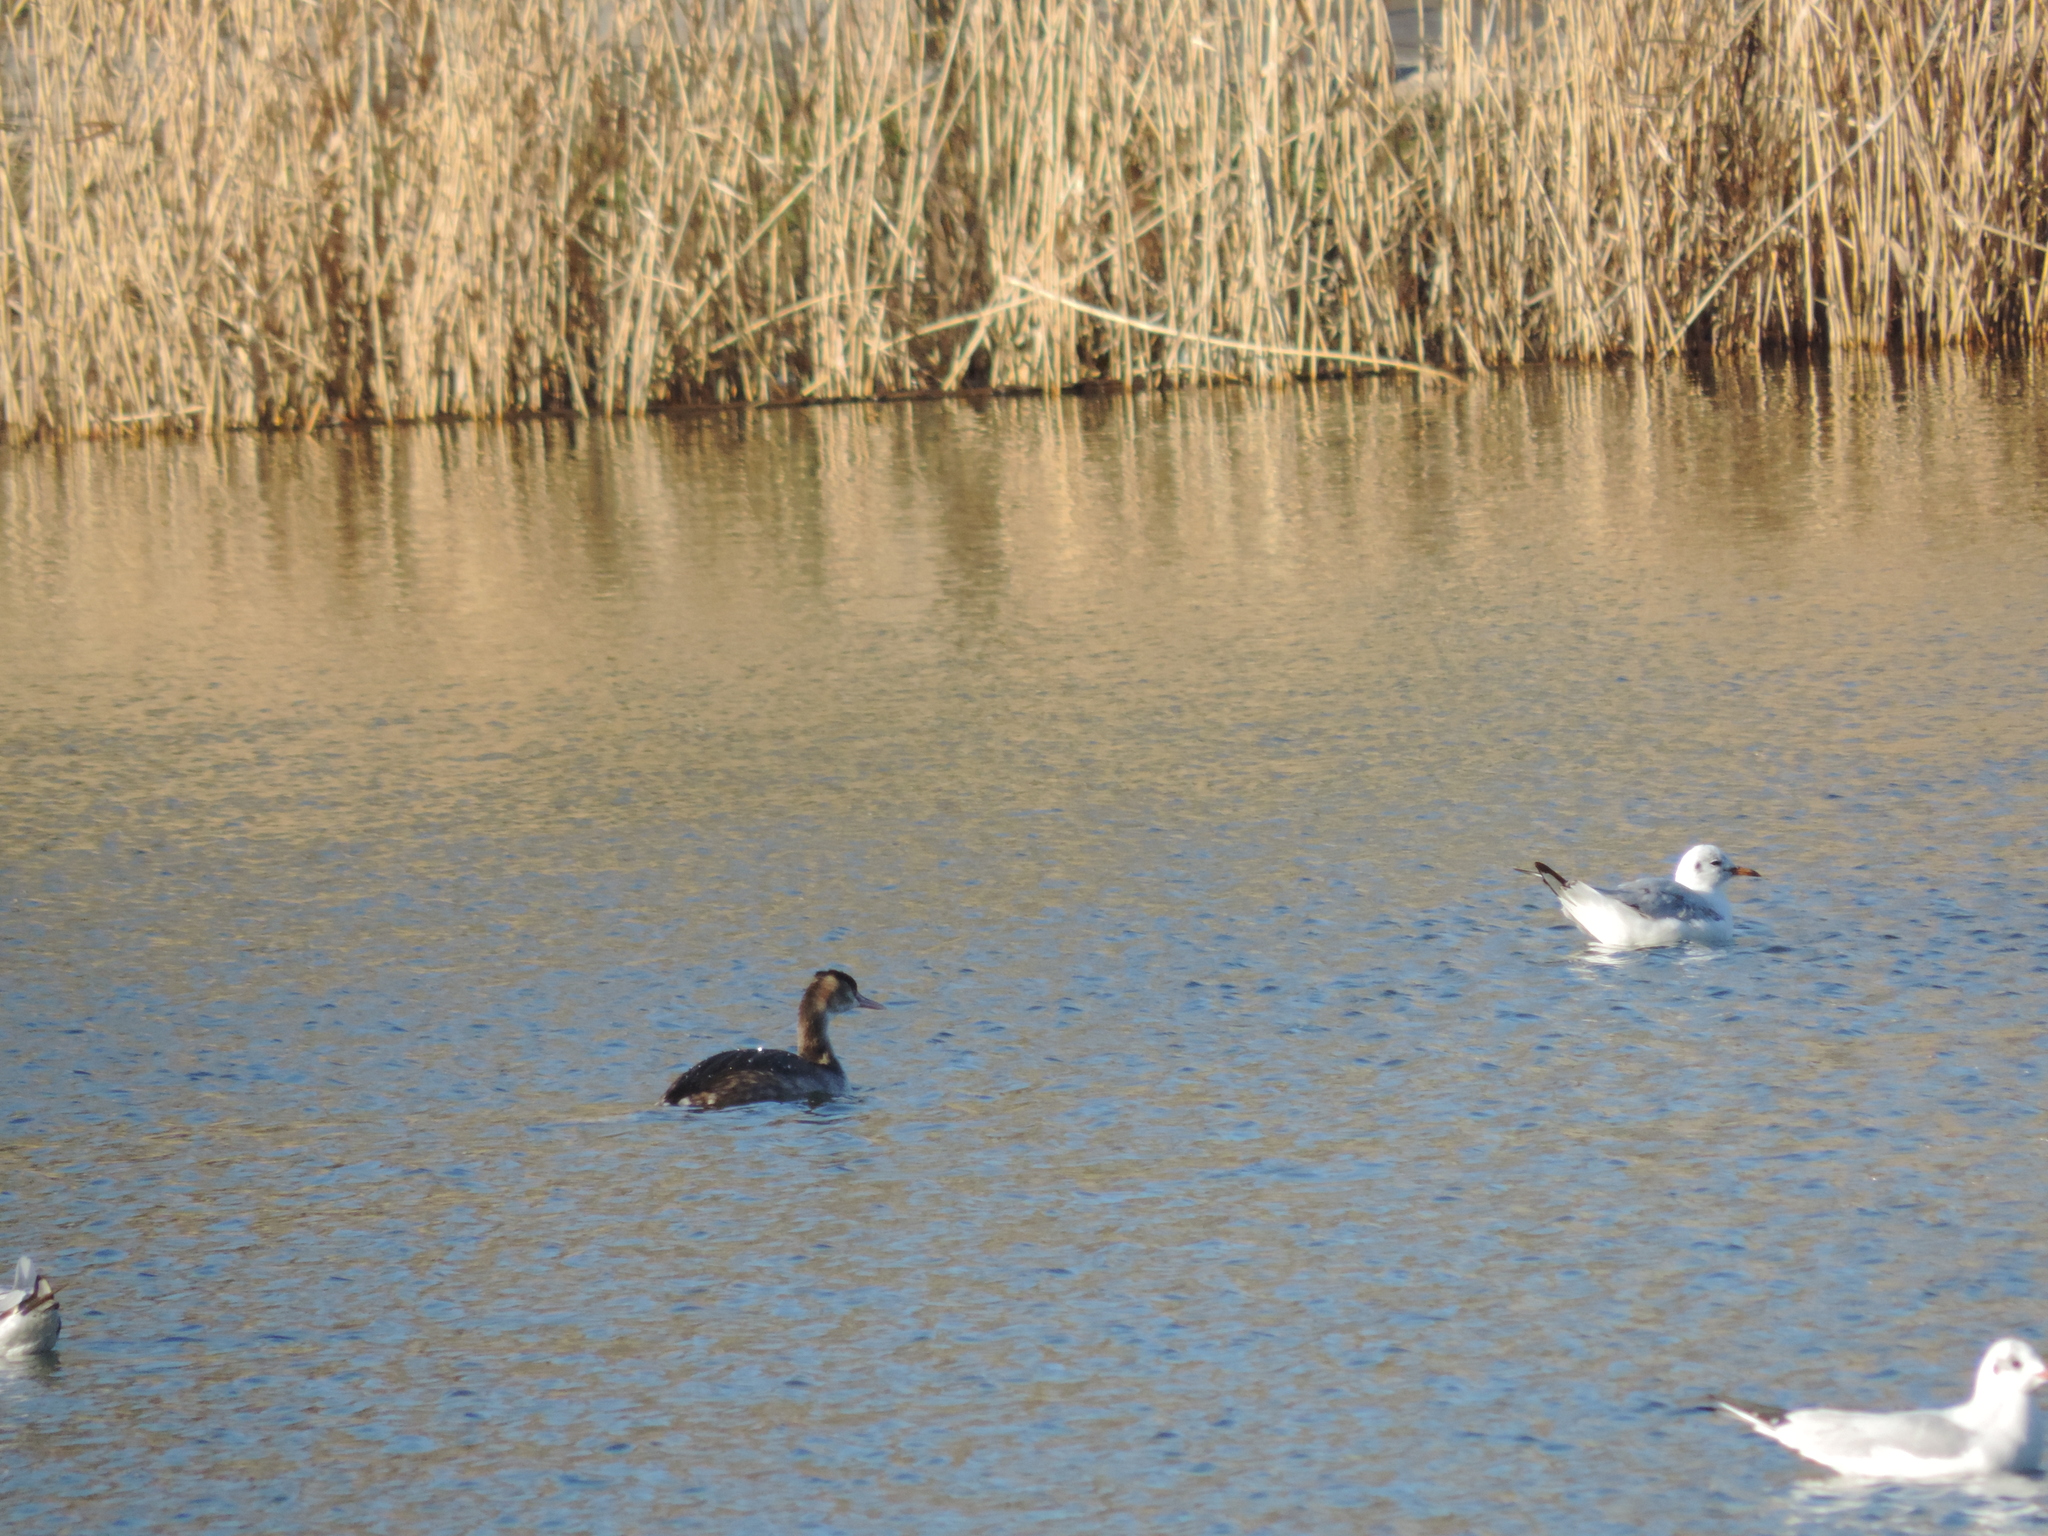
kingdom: Animalia
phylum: Chordata
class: Aves
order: Podicipediformes
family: Podicipedidae
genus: Podiceps
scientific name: Podiceps cristatus
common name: Great crested grebe
